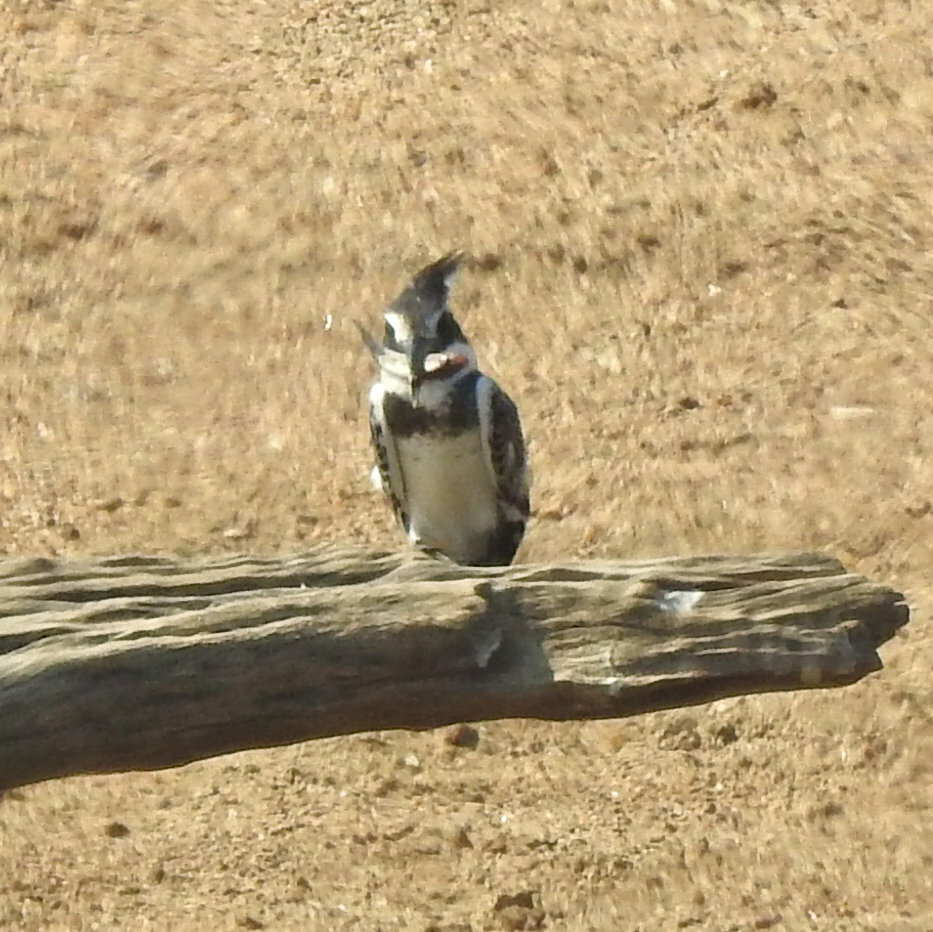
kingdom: Animalia
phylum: Chordata
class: Aves
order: Coraciiformes
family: Alcedinidae
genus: Ceryle
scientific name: Ceryle rudis
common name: Pied kingfisher
